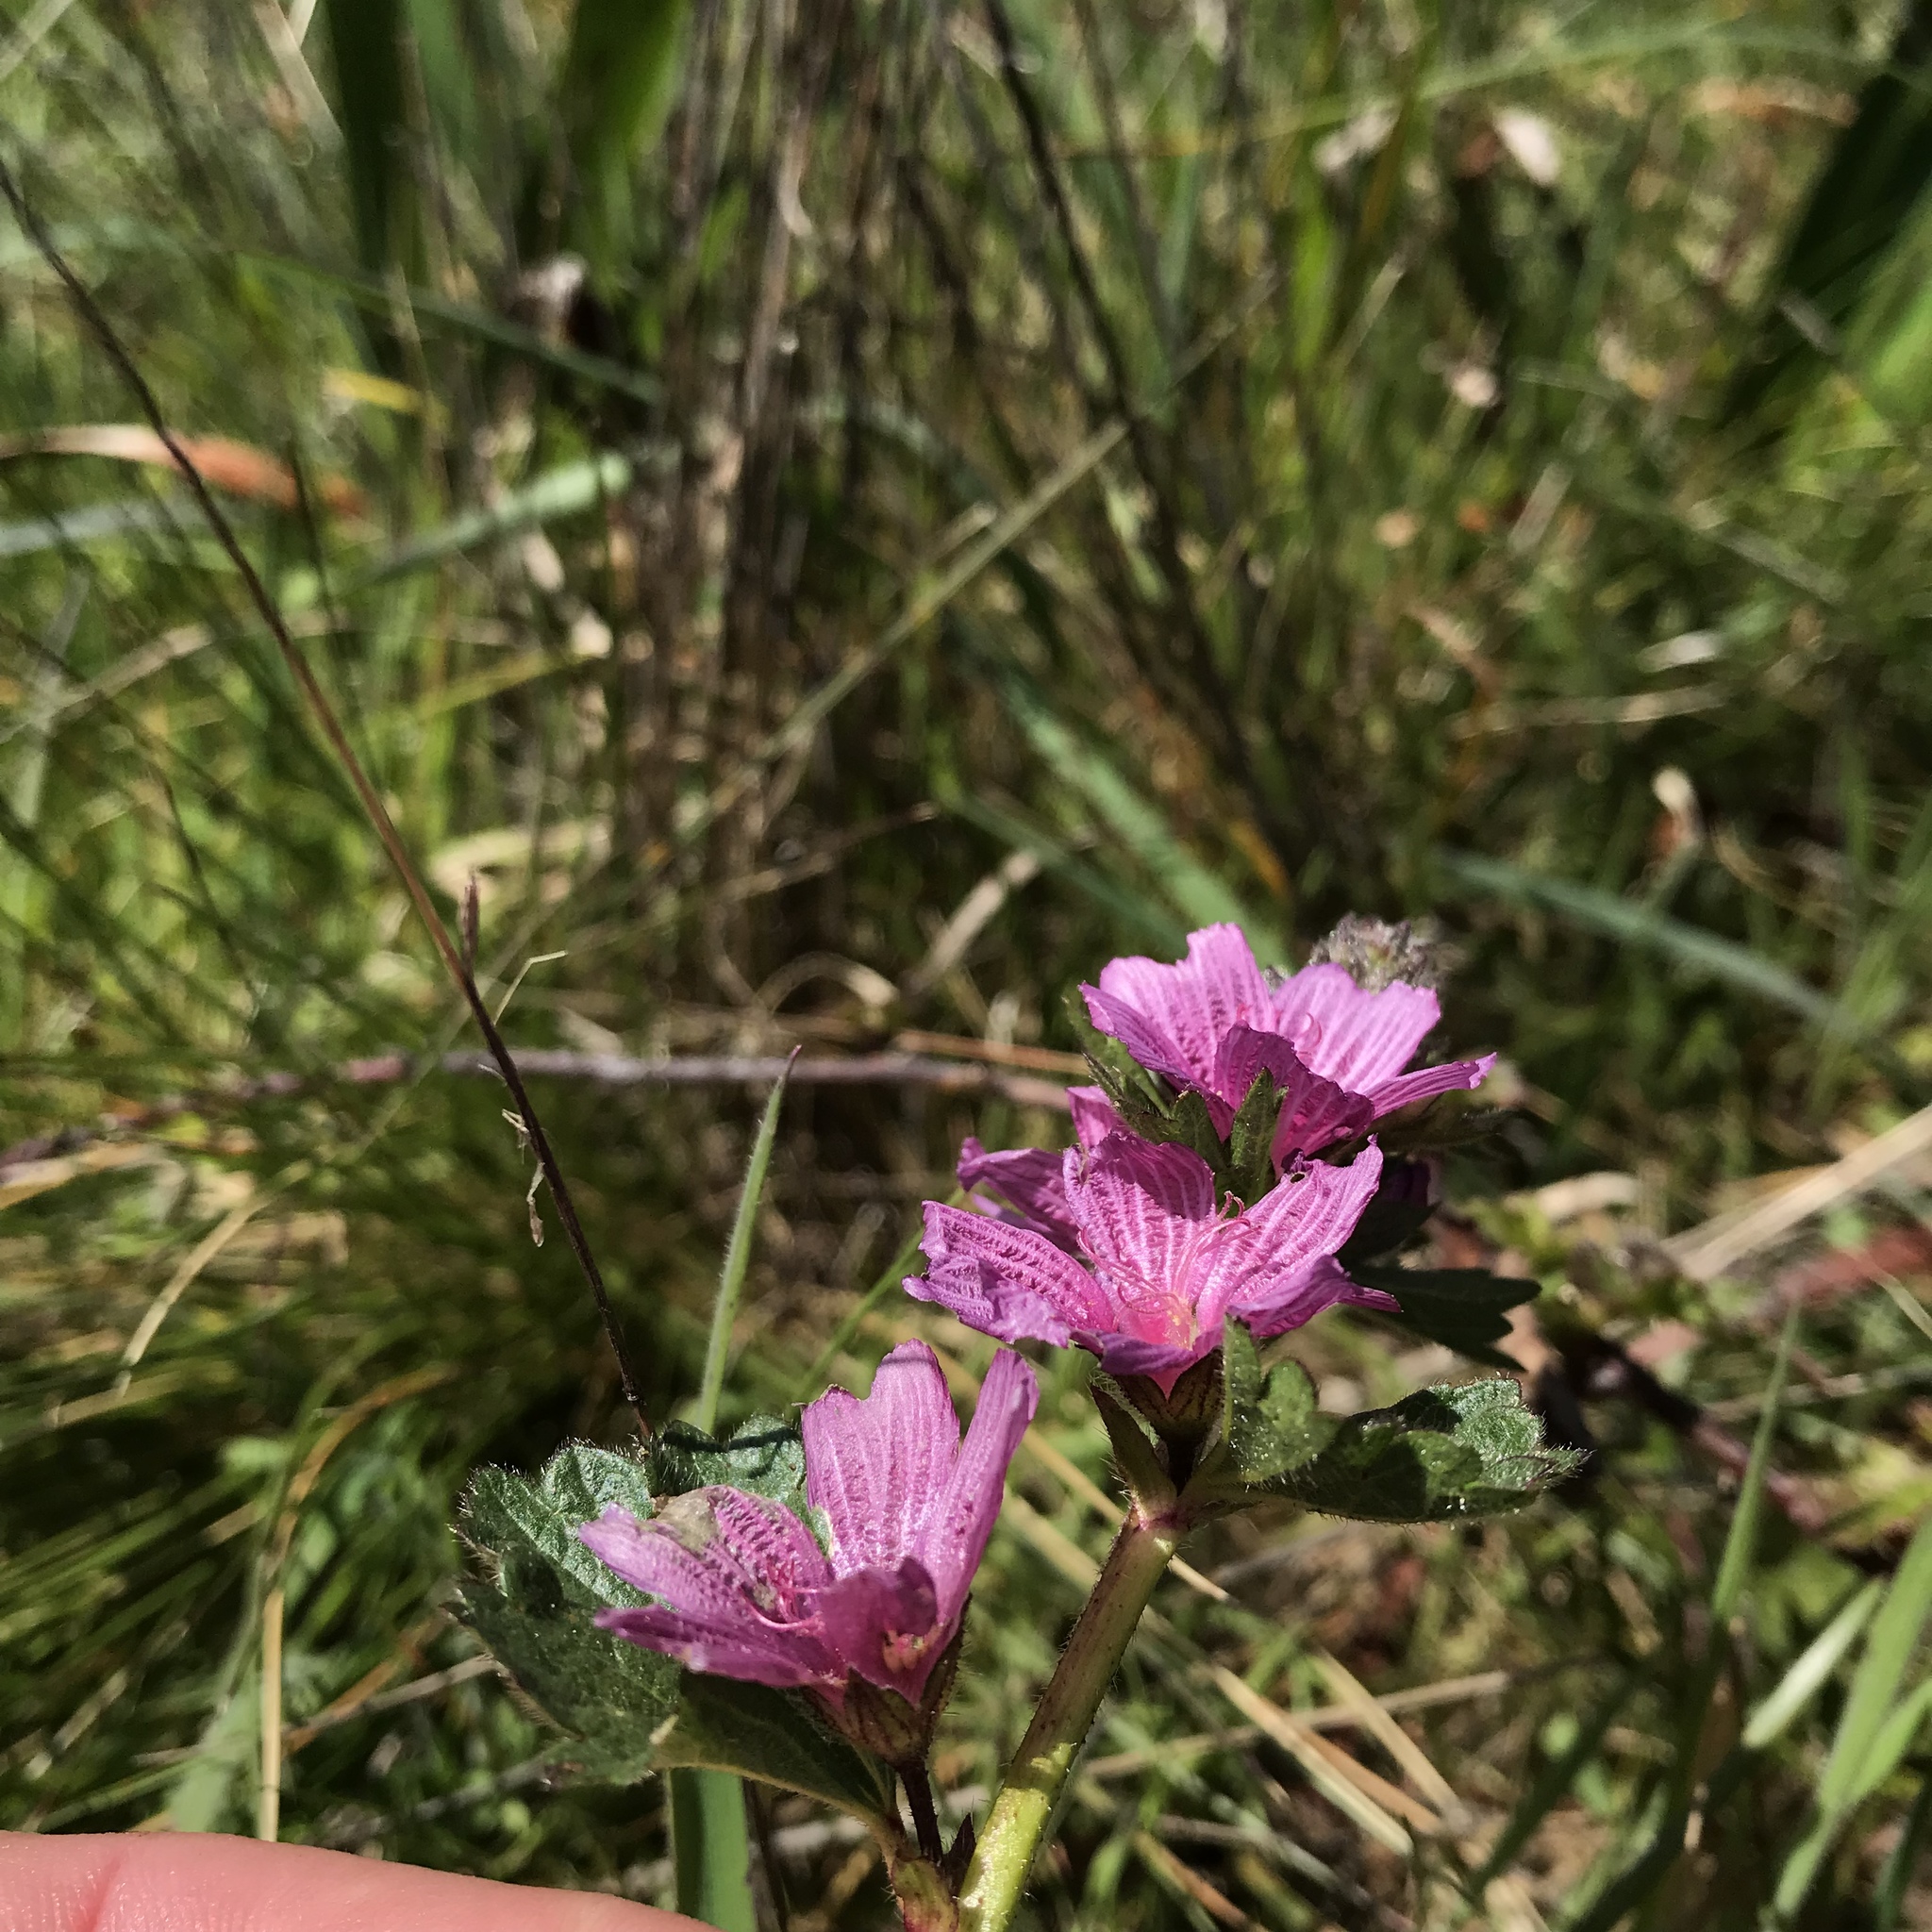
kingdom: Plantae
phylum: Tracheophyta
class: Magnoliopsida
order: Malvales
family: Malvaceae
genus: Sidalcea
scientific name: Sidalcea malviflora
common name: Greek mallow
